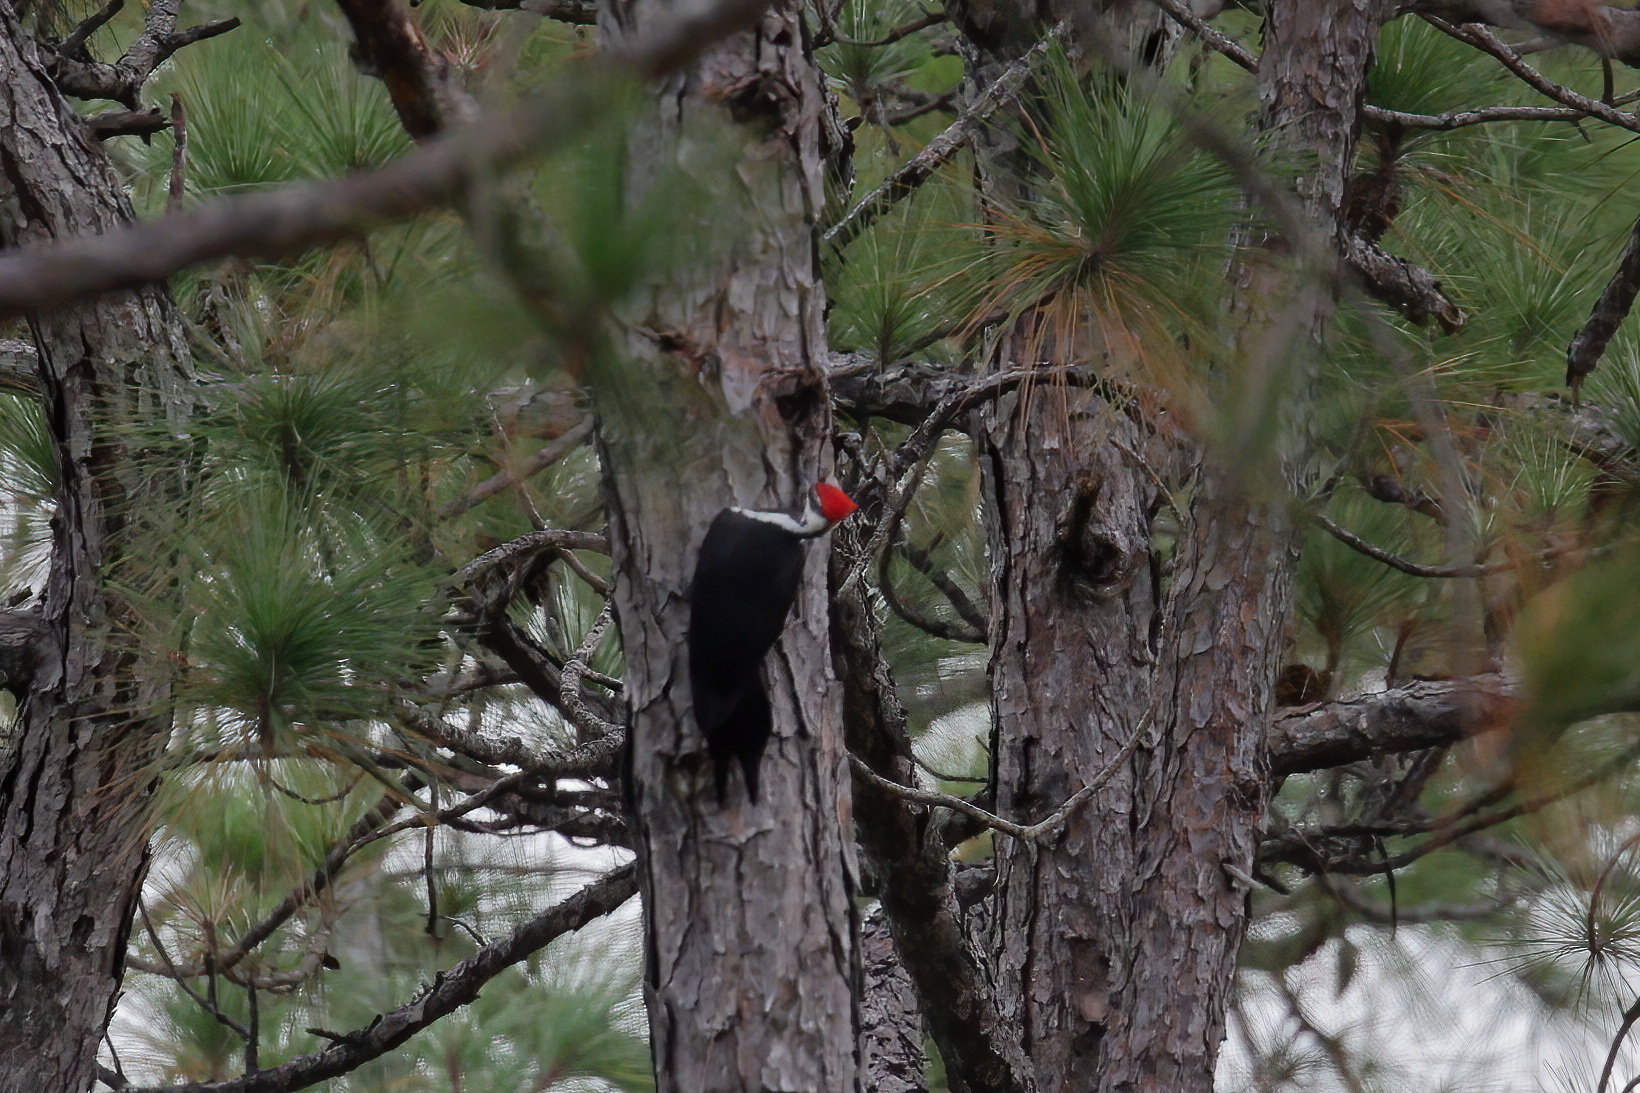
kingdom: Animalia
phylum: Chordata
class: Aves
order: Piciformes
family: Picidae
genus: Dryocopus
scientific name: Dryocopus pileatus
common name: Pileated woodpecker
